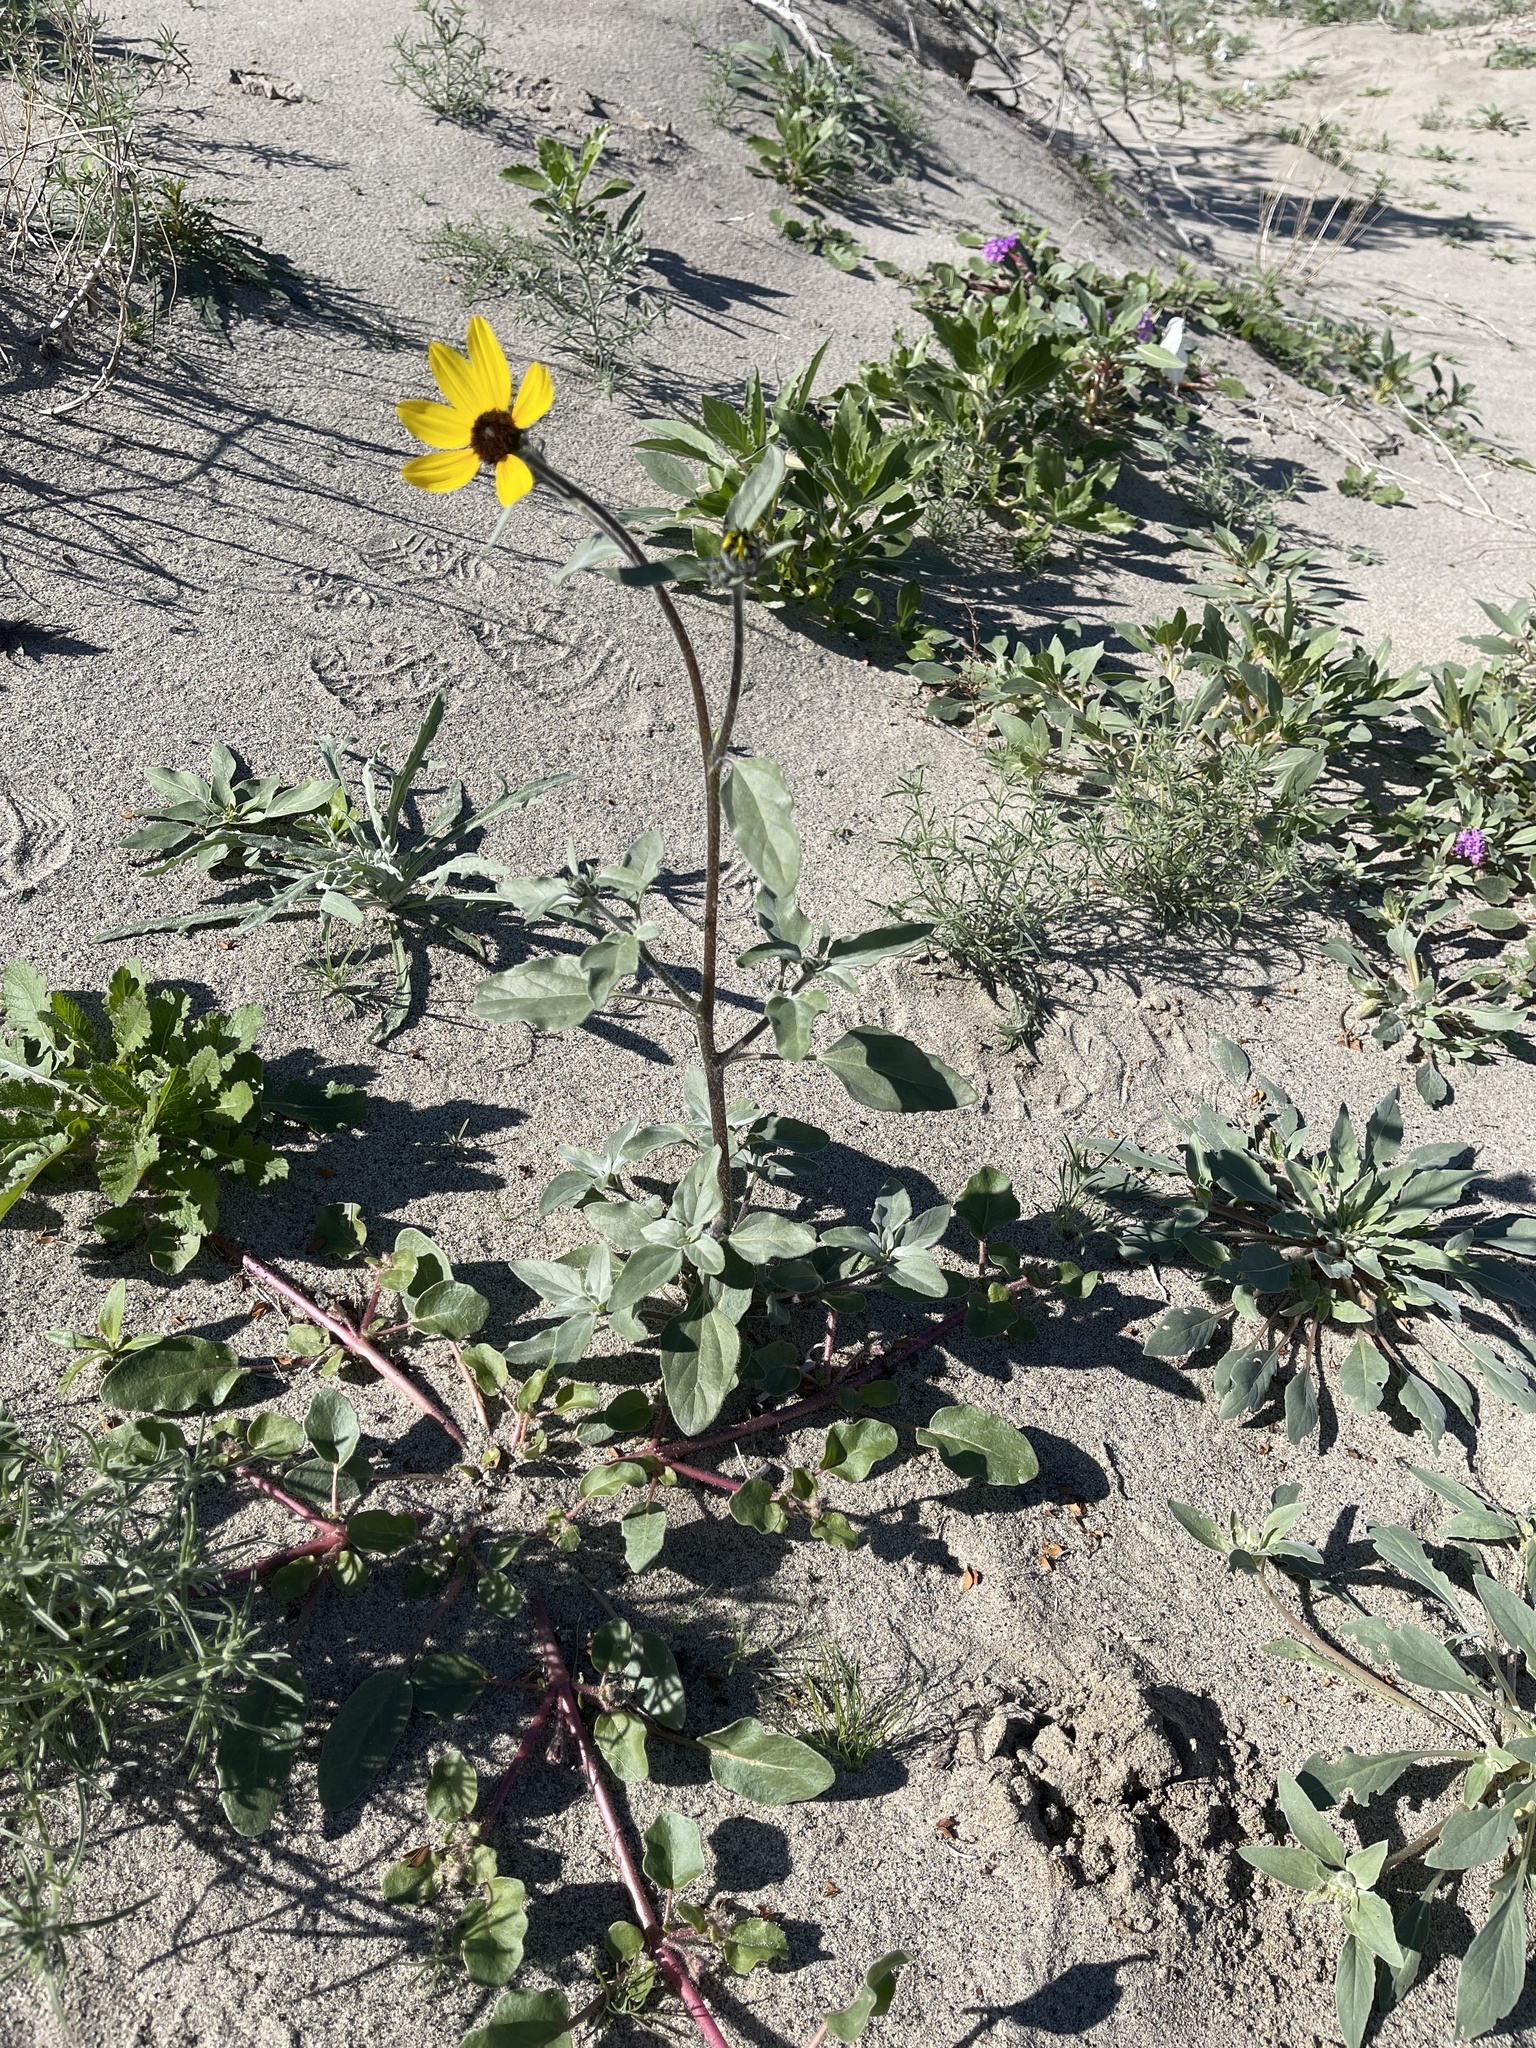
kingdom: Plantae
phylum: Tracheophyta
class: Magnoliopsida
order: Asterales
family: Asteraceae
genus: Helianthus
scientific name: Helianthus petiolaris
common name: Lesser sunflower
